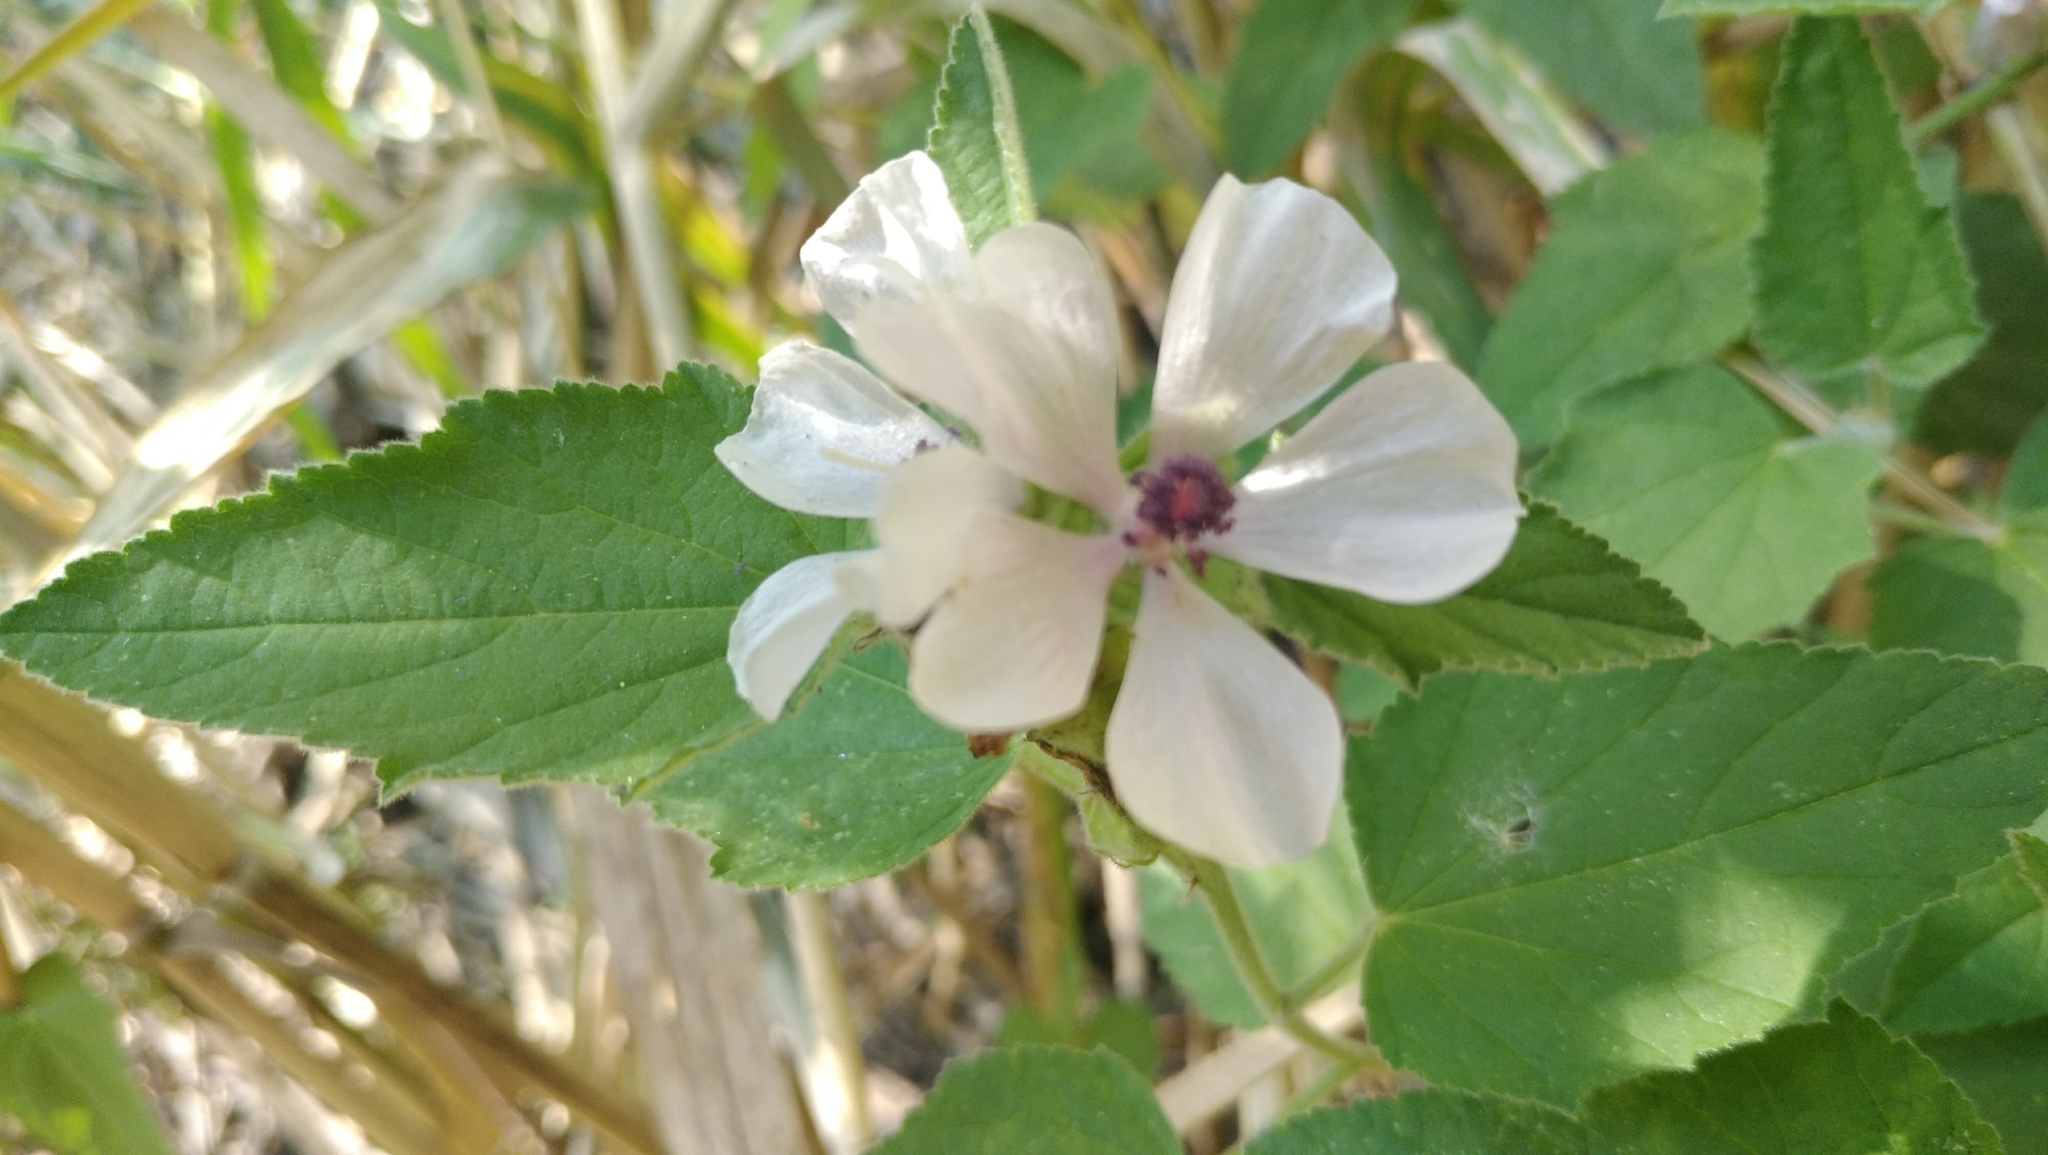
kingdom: Plantae
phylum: Tracheophyta
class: Magnoliopsida
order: Malvales
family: Malvaceae
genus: Althaea
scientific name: Althaea officinalis
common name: Marsh-mallow
